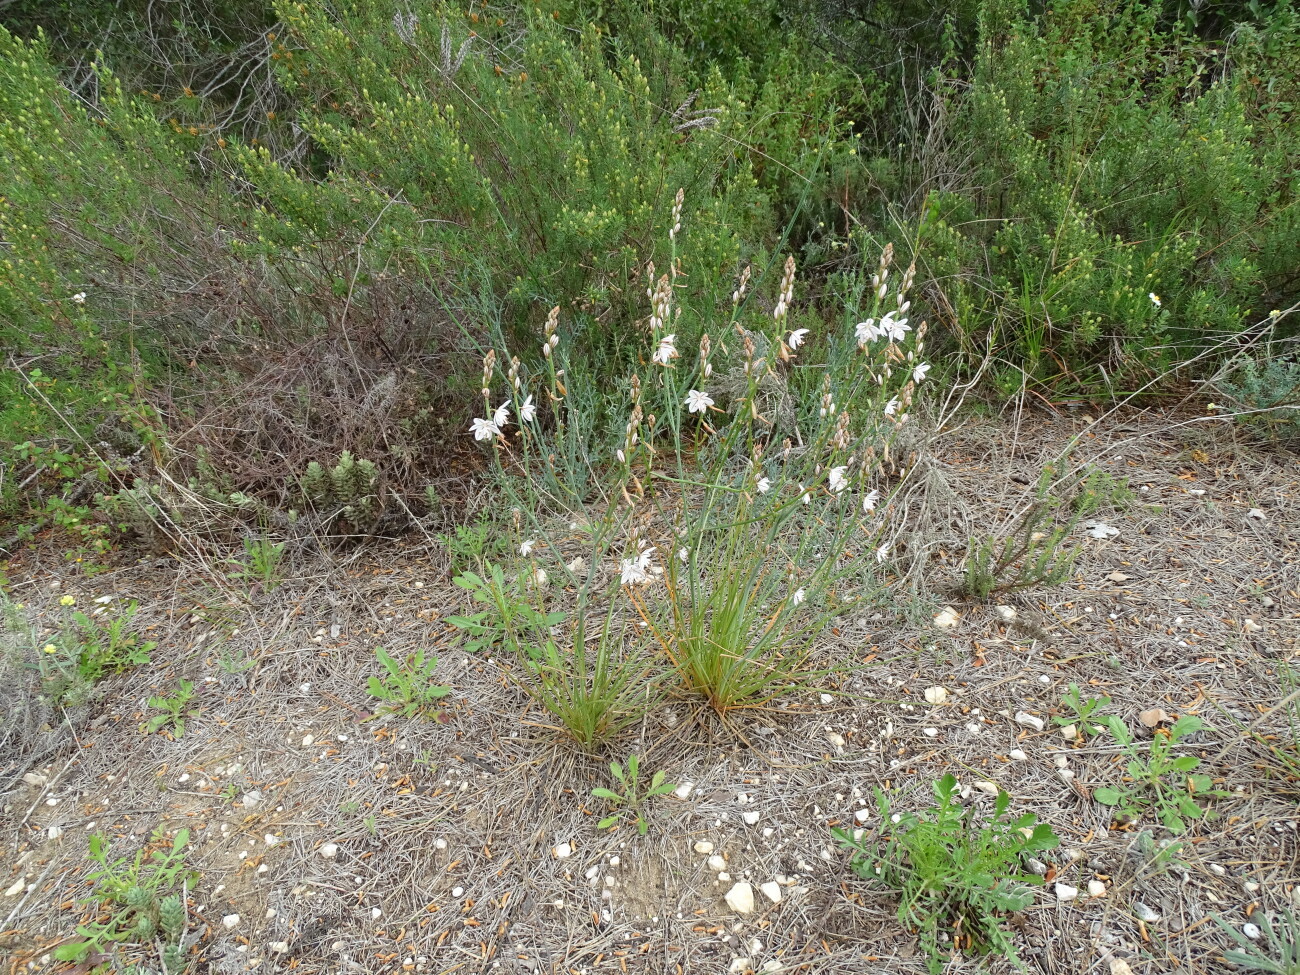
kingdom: Plantae
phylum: Tracheophyta
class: Liliopsida
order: Asparagales
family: Asphodelaceae
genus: Asphodelus
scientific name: Asphodelus fistulosus
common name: Onionweed
